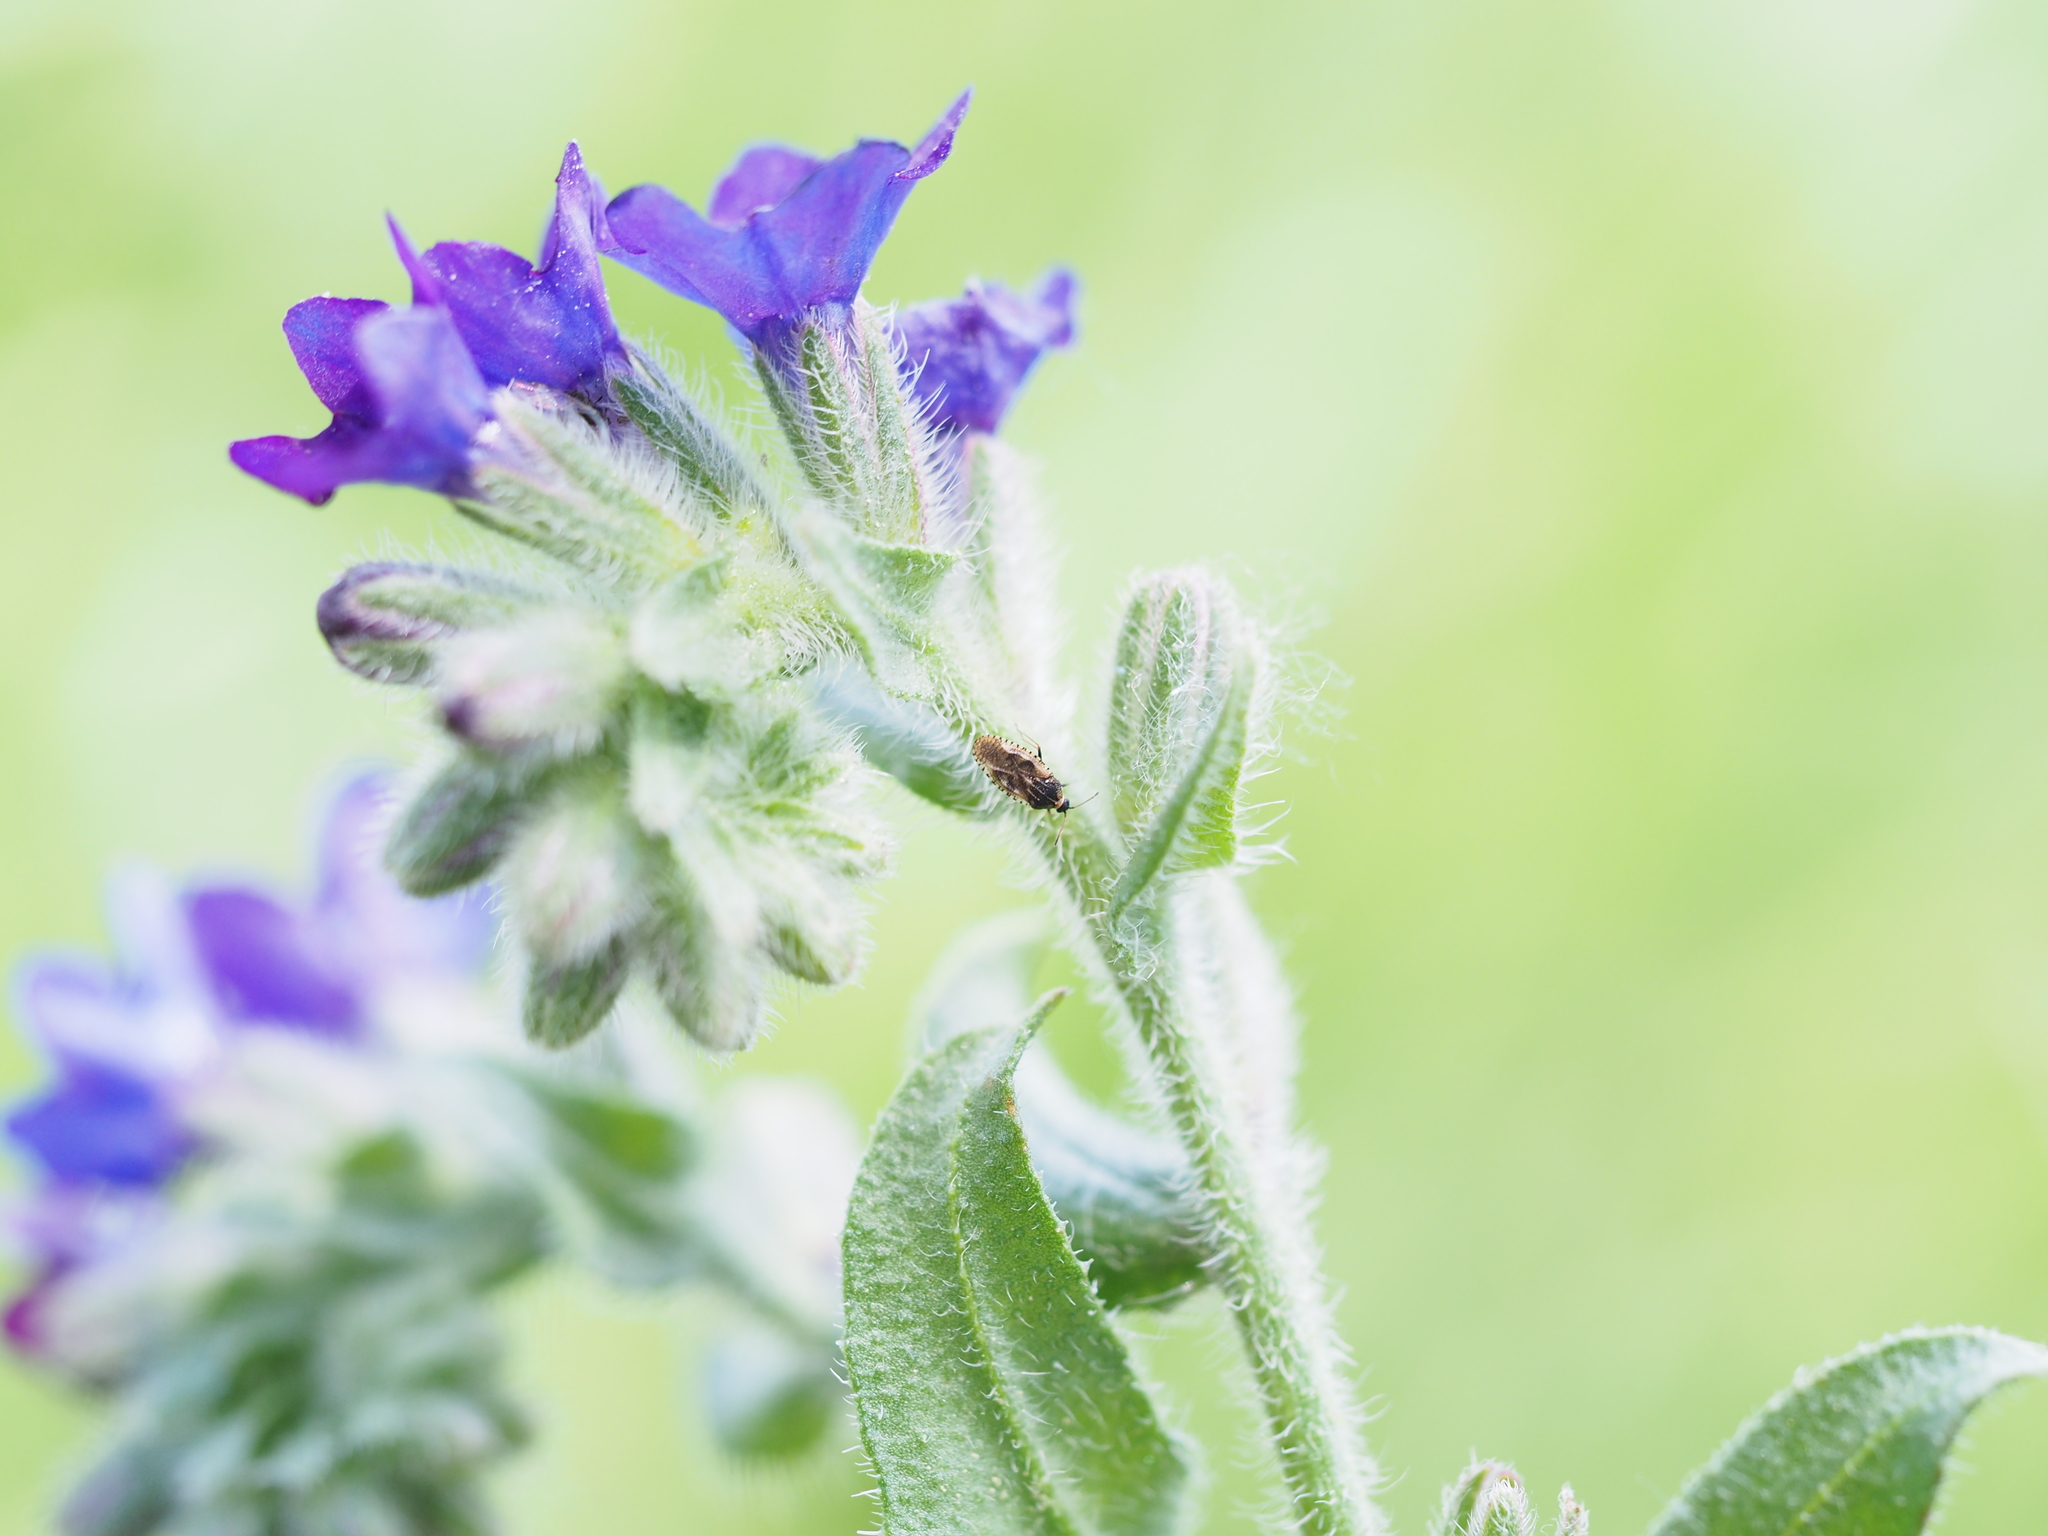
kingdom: Animalia
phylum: Arthropoda
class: Insecta
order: Hemiptera
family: Tingidae
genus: Dictyla
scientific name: Dictyla echii
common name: Lace bug
